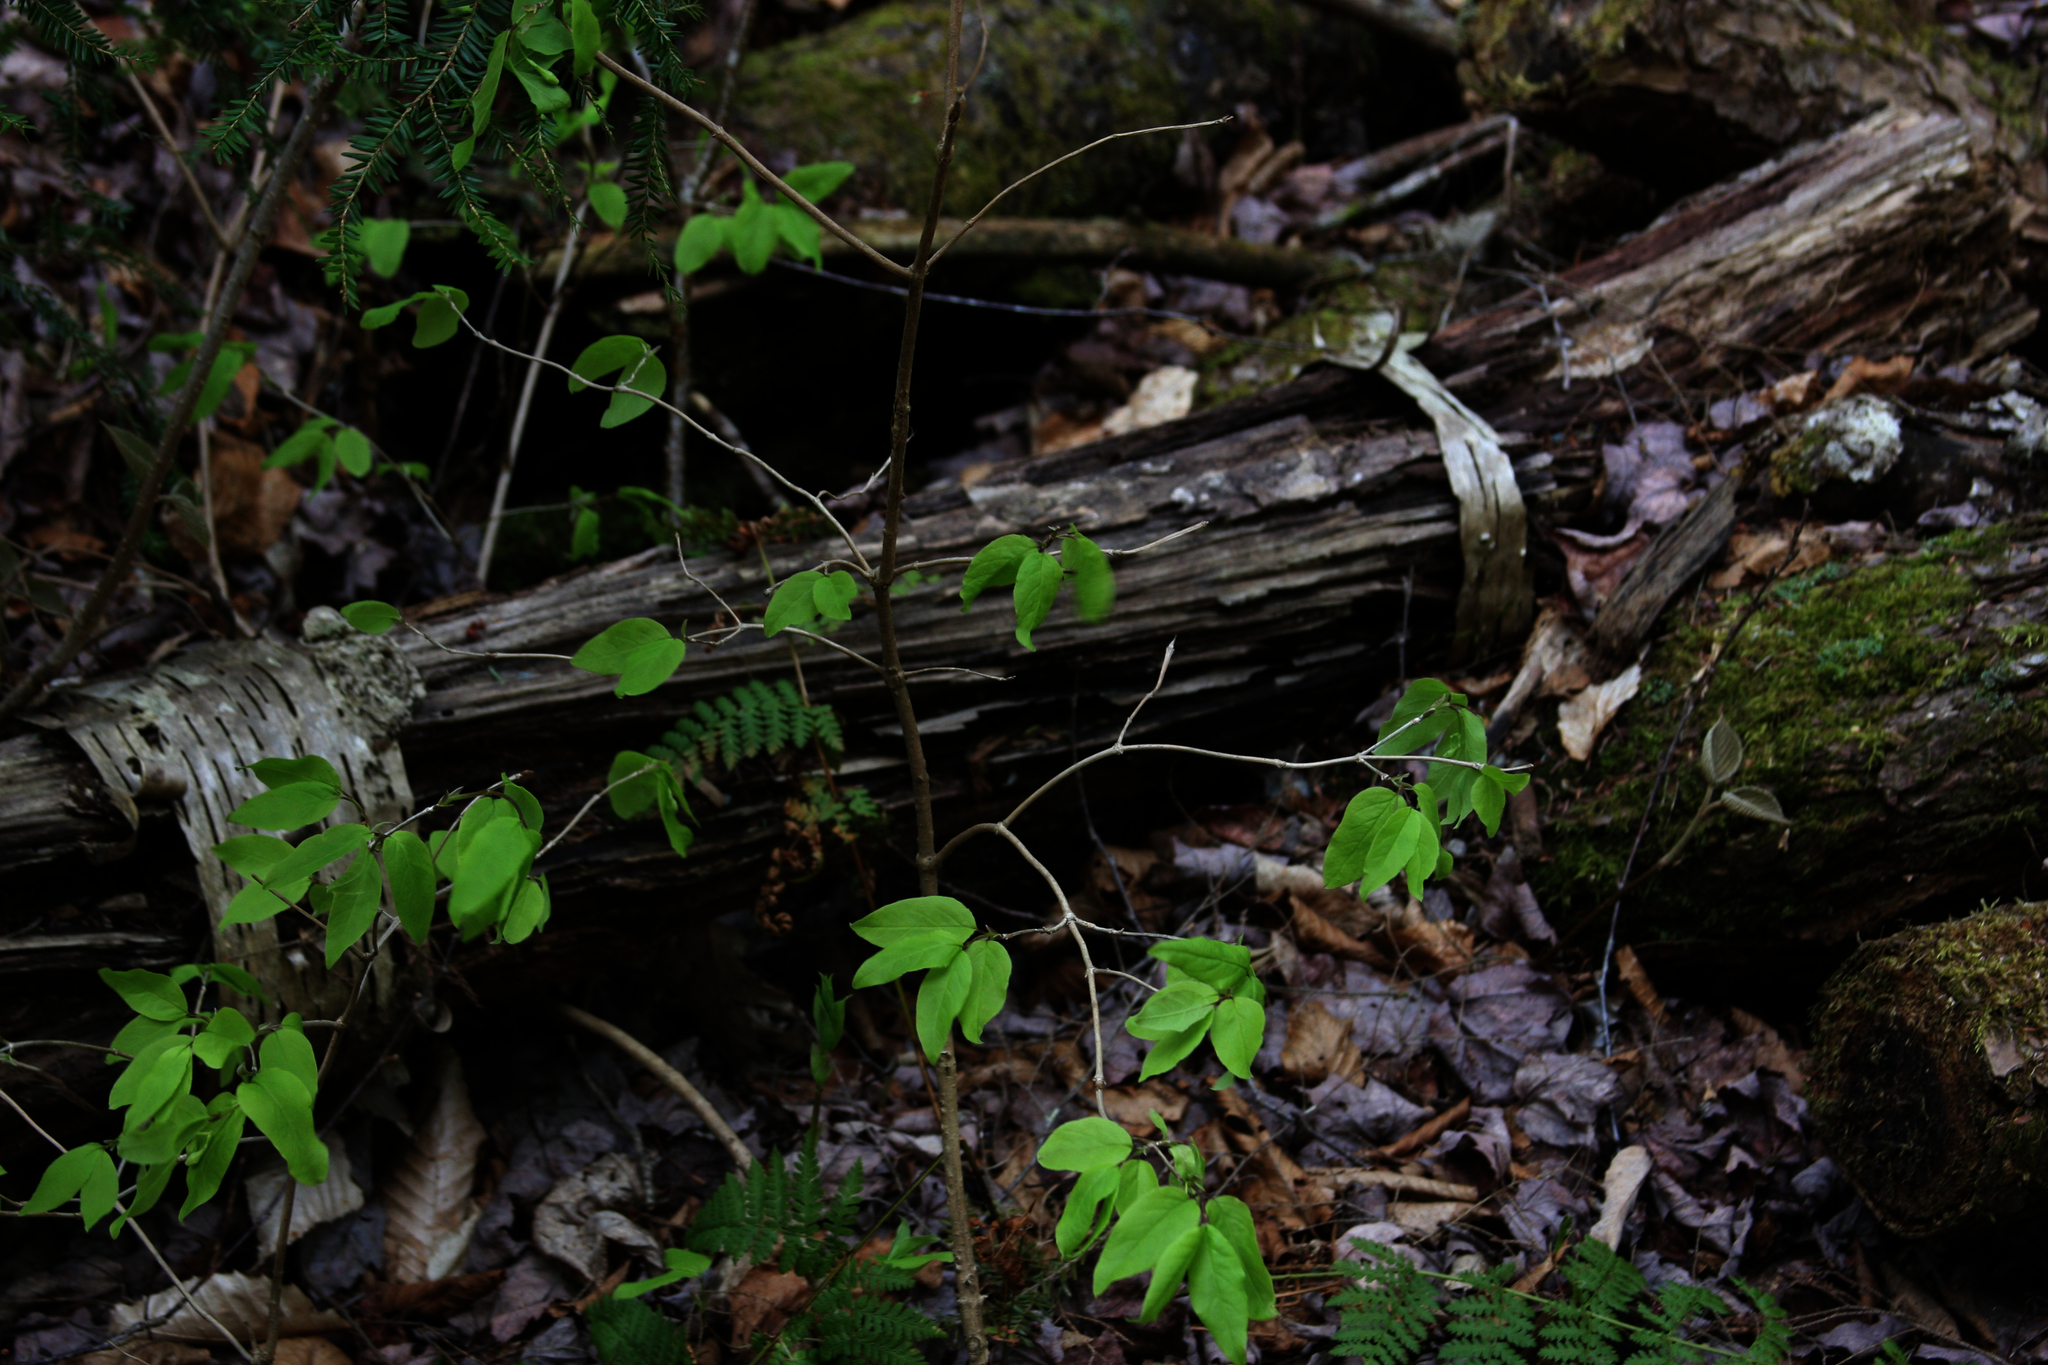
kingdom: Plantae
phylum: Tracheophyta
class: Magnoliopsida
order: Dipsacales
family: Caprifoliaceae
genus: Lonicera
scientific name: Lonicera canadensis
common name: American fly-honeysuckle
